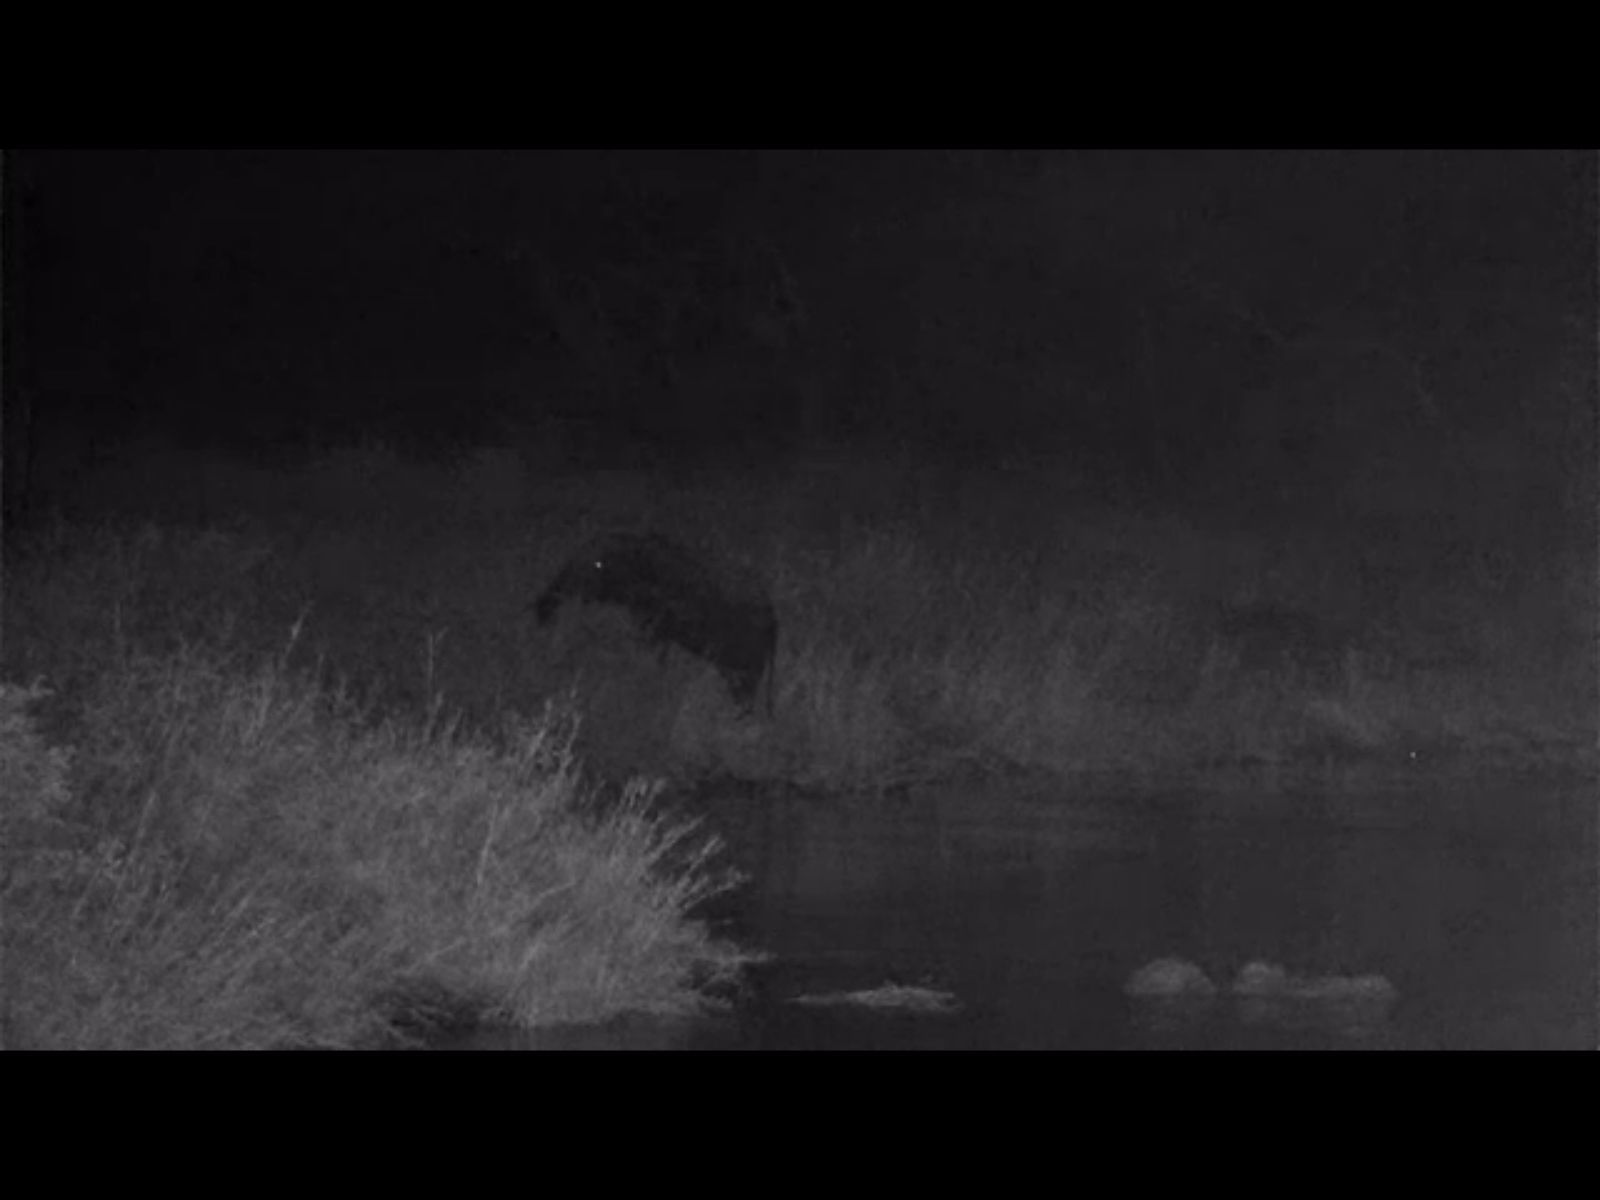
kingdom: Animalia
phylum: Chordata
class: Mammalia
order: Proboscidea
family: Elephantidae
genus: Loxodonta
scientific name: Loxodonta africana
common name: African elephant
